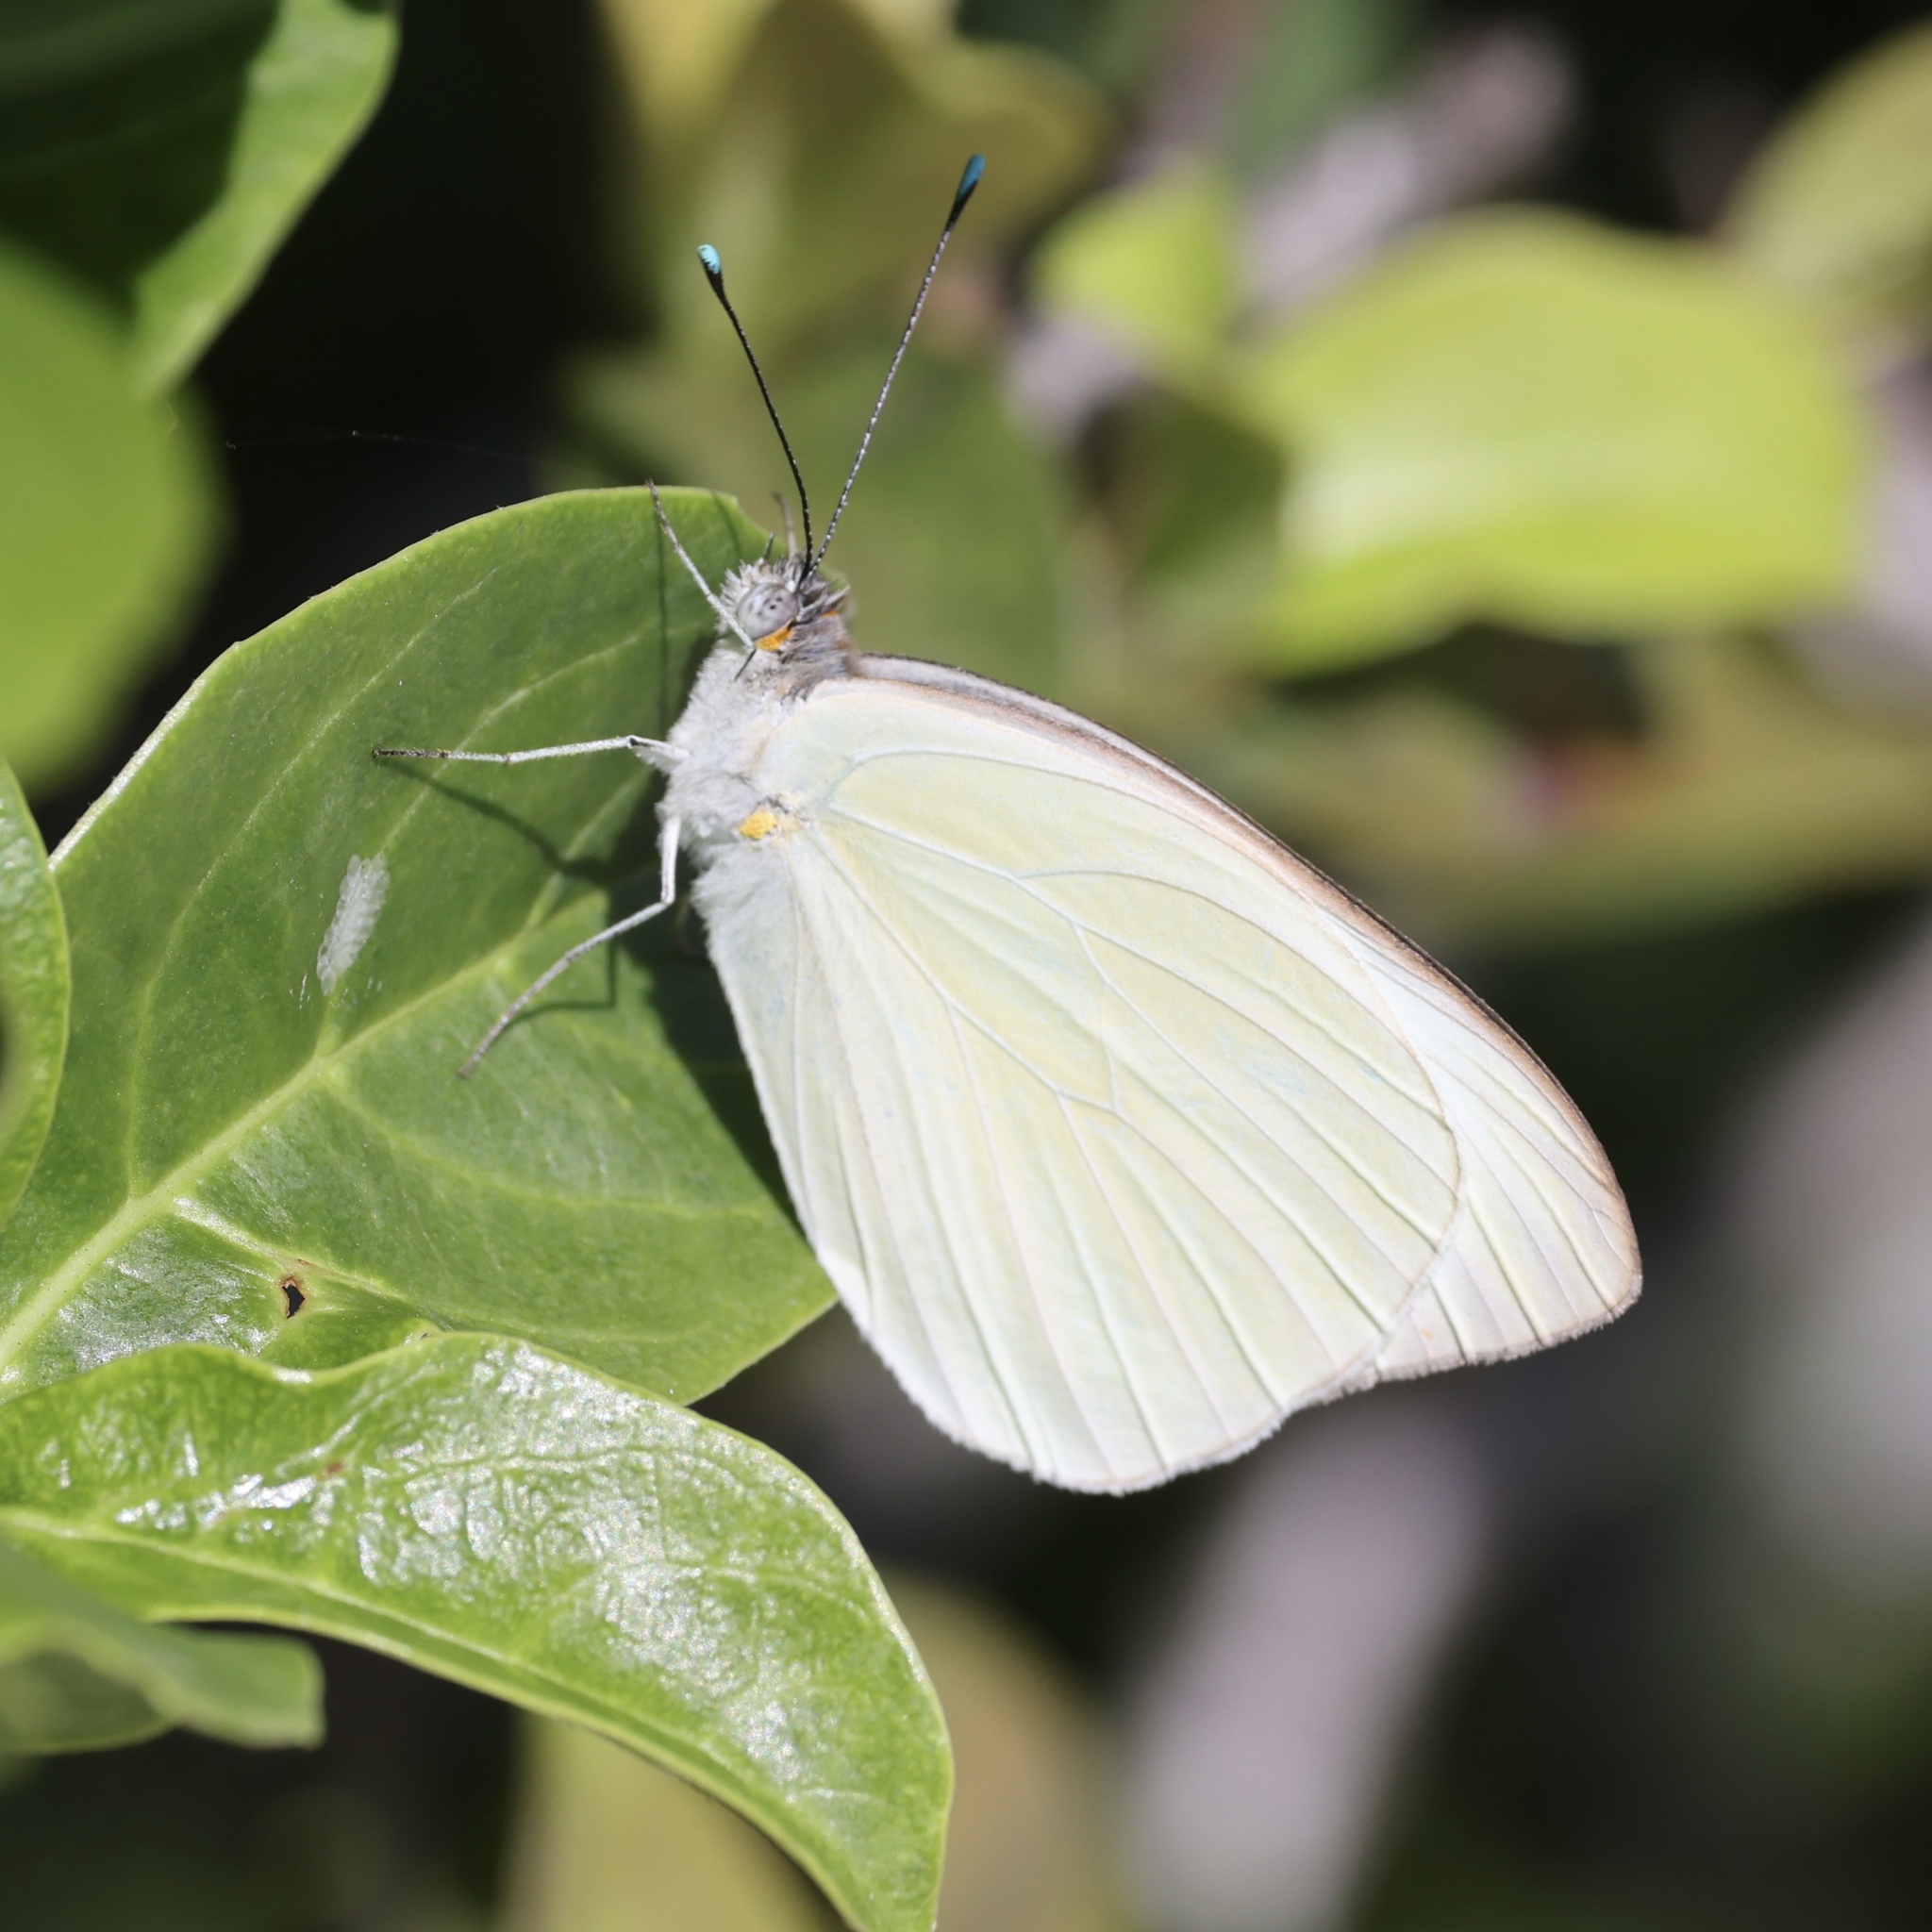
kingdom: Animalia
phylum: Arthropoda
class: Insecta
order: Lepidoptera
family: Pieridae
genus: Ascia
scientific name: Ascia monuste
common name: Great southern white
